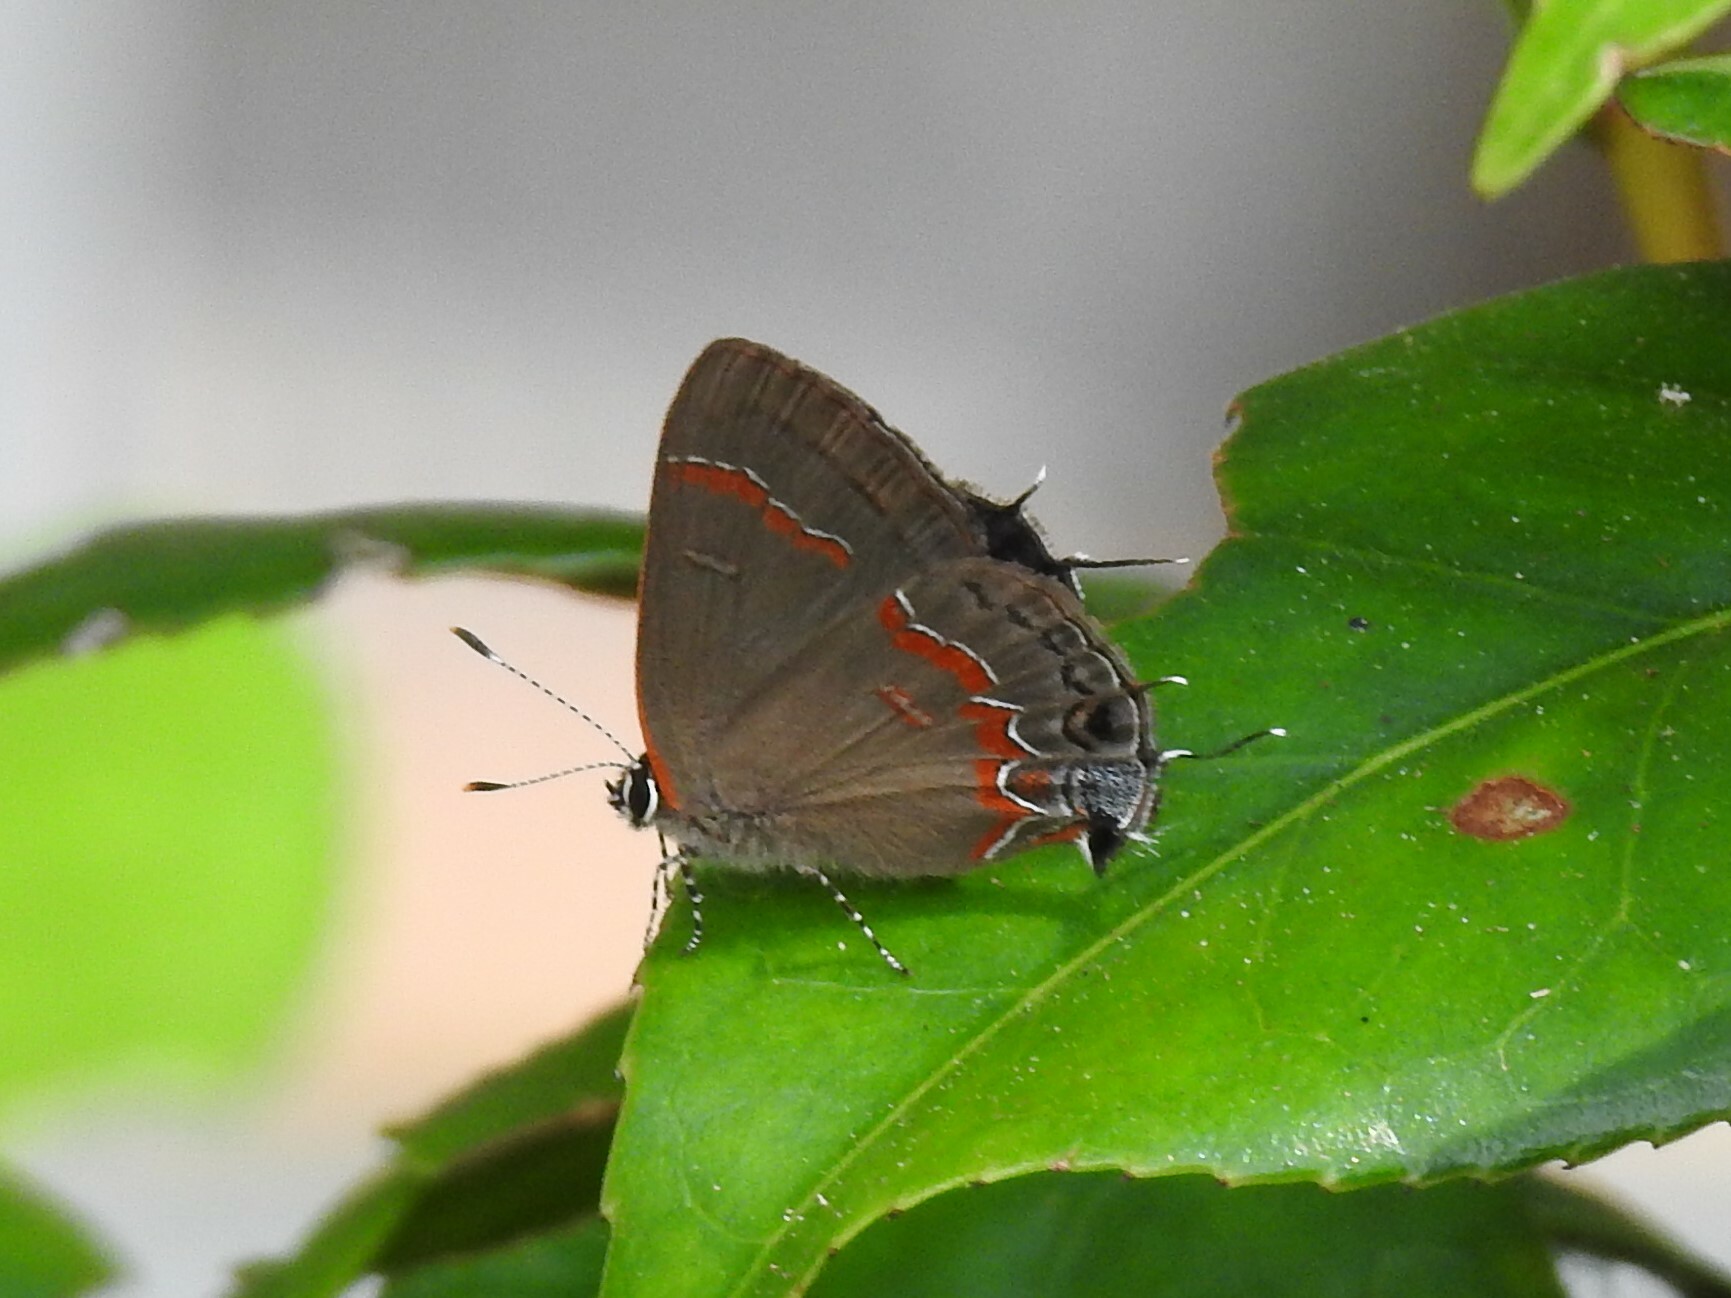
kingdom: Animalia
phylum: Arthropoda
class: Insecta
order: Lepidoptera
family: Lycaenidae
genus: Calycopis
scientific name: Calycopis cecrops
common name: Red-banded hairstreak
